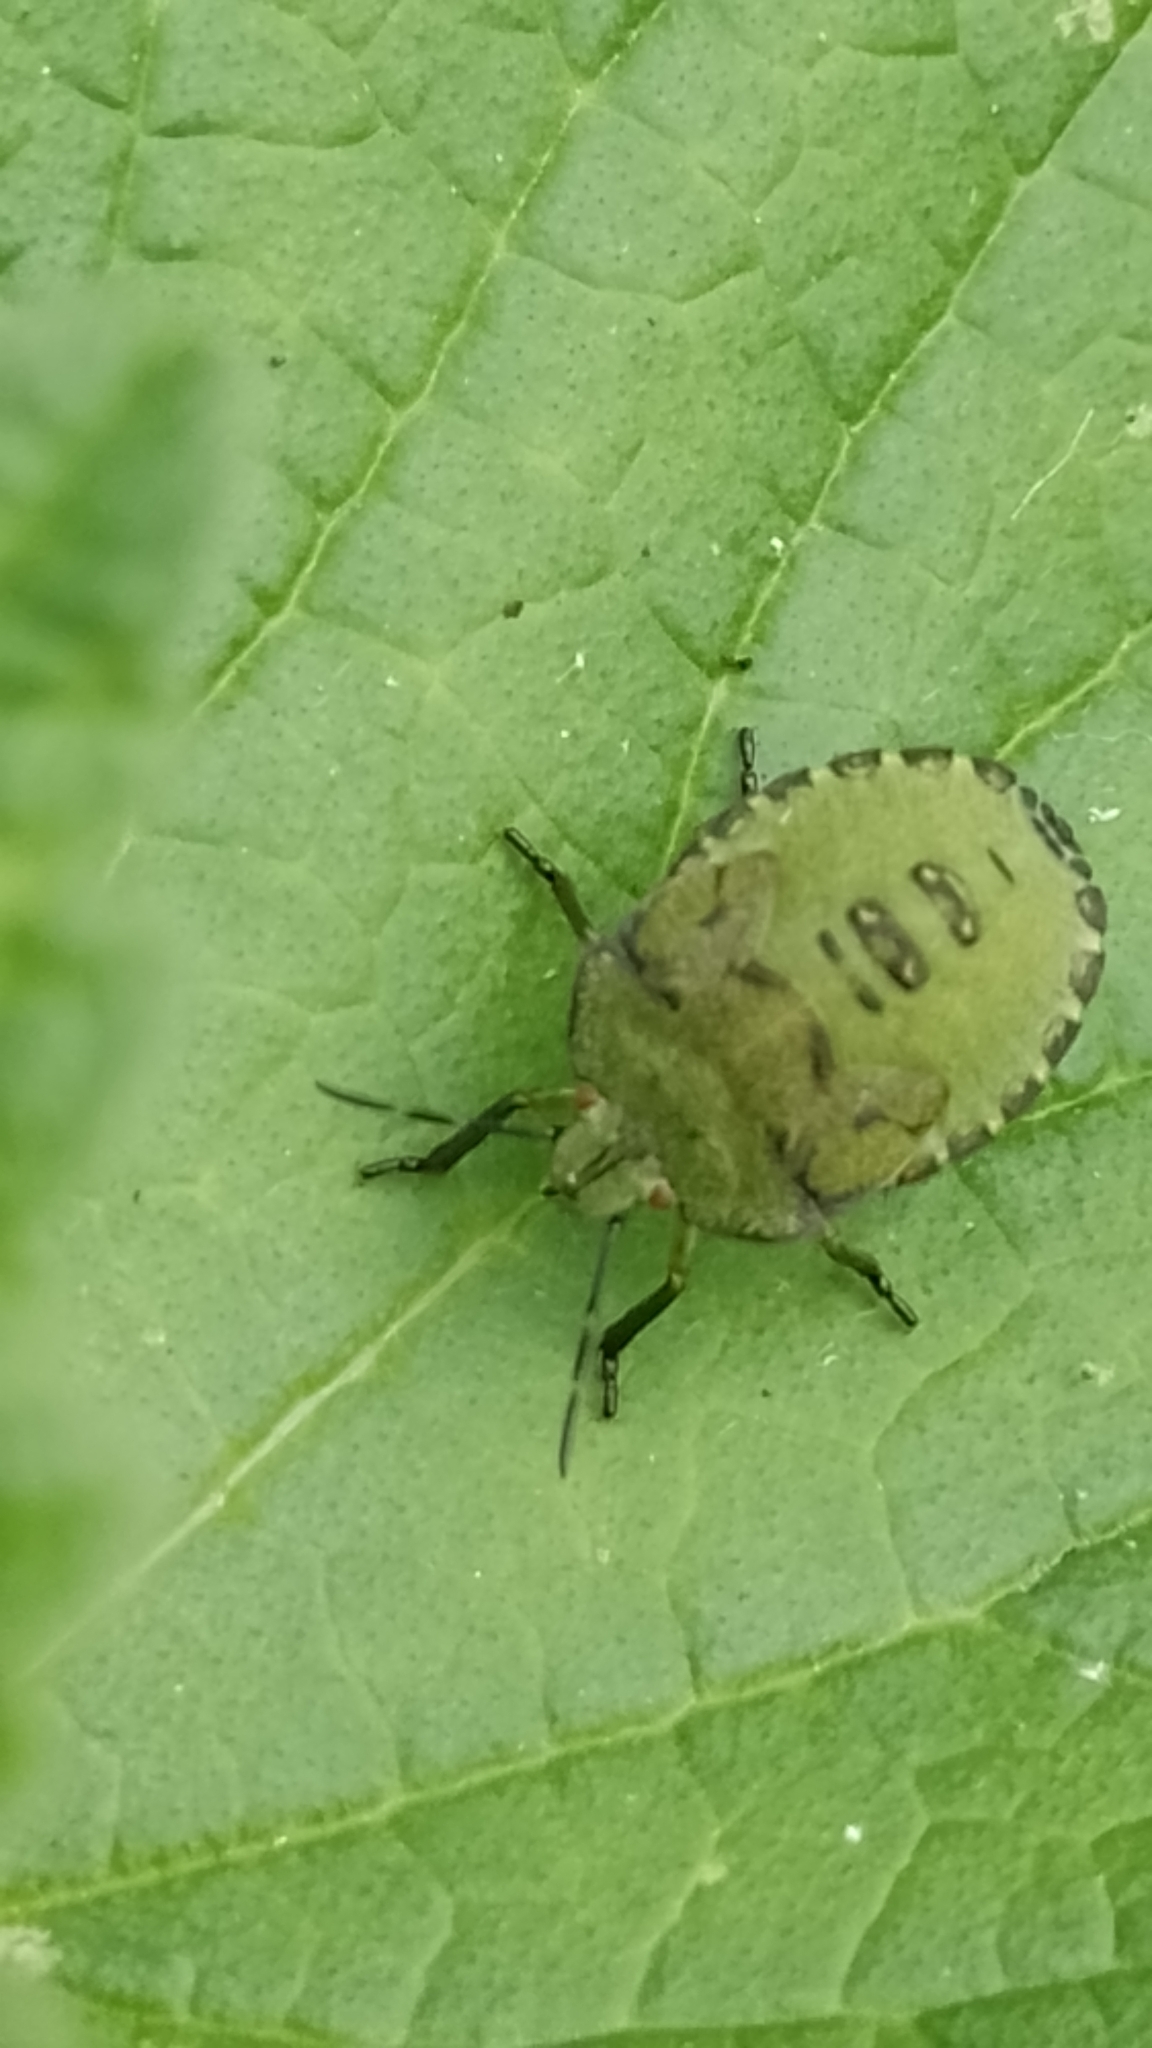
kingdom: Animalia
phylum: Arthropoda
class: Insecta
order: Hemiptera
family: Pentatomidae
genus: Palomena
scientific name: Palomena prasina
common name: Green shieldbug
